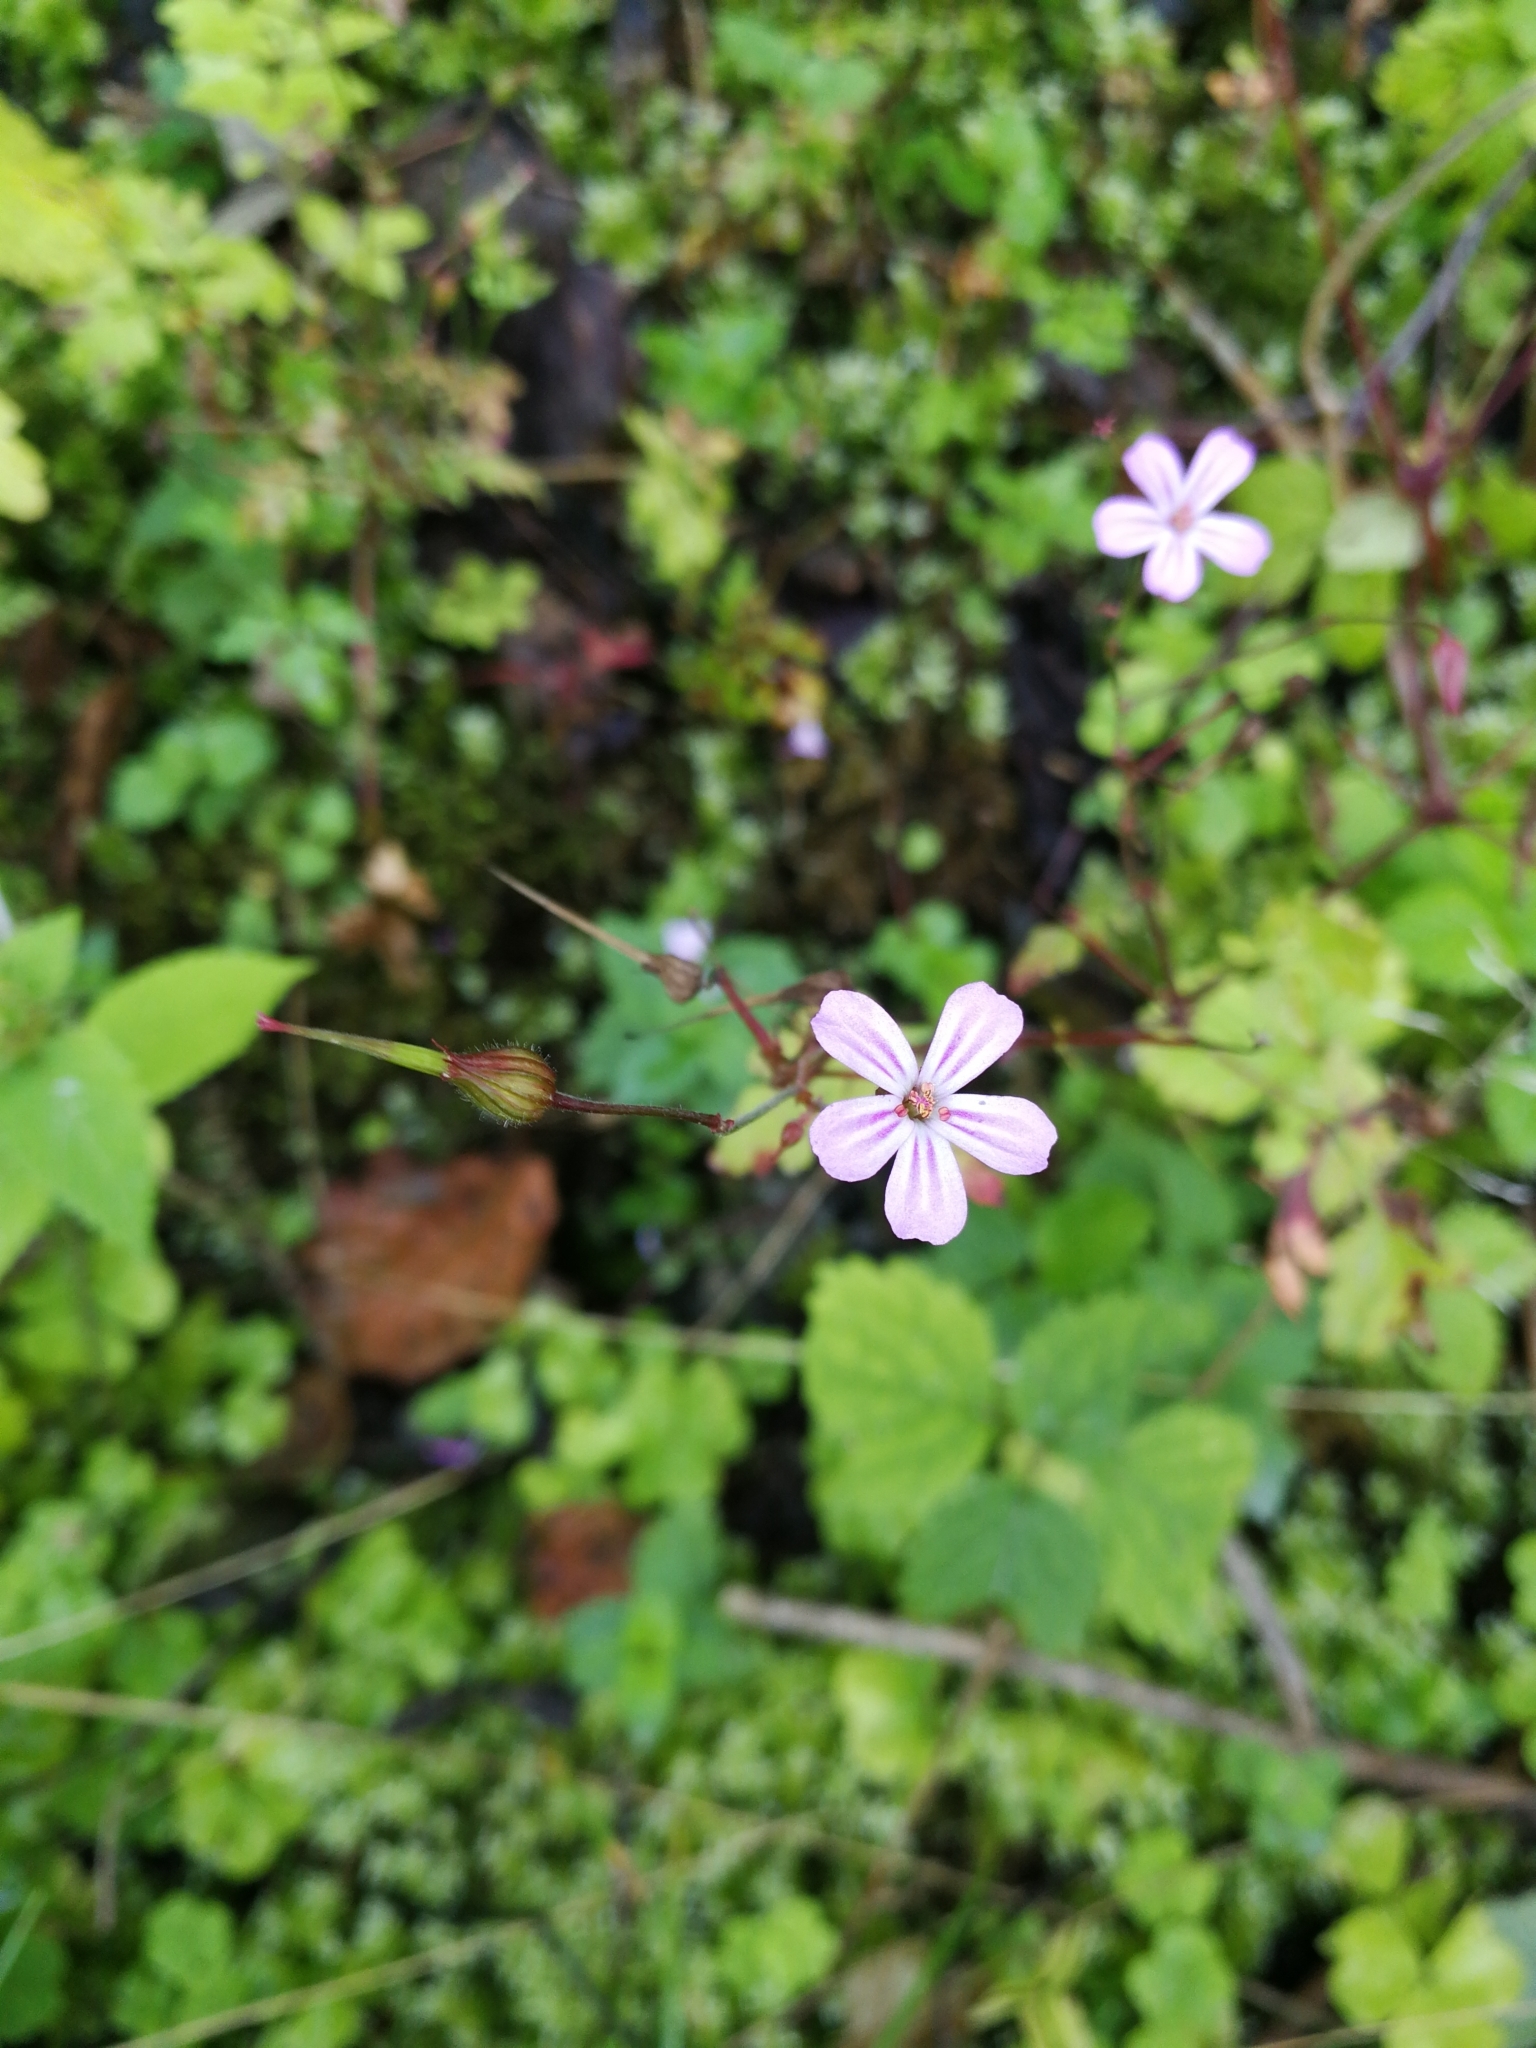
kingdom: Plantae
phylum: Tracheophyta
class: Magnoliopsida
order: Geraniales
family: Geraniaceae
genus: Geranium
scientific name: Geranium robertianum
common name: Herb-robert
